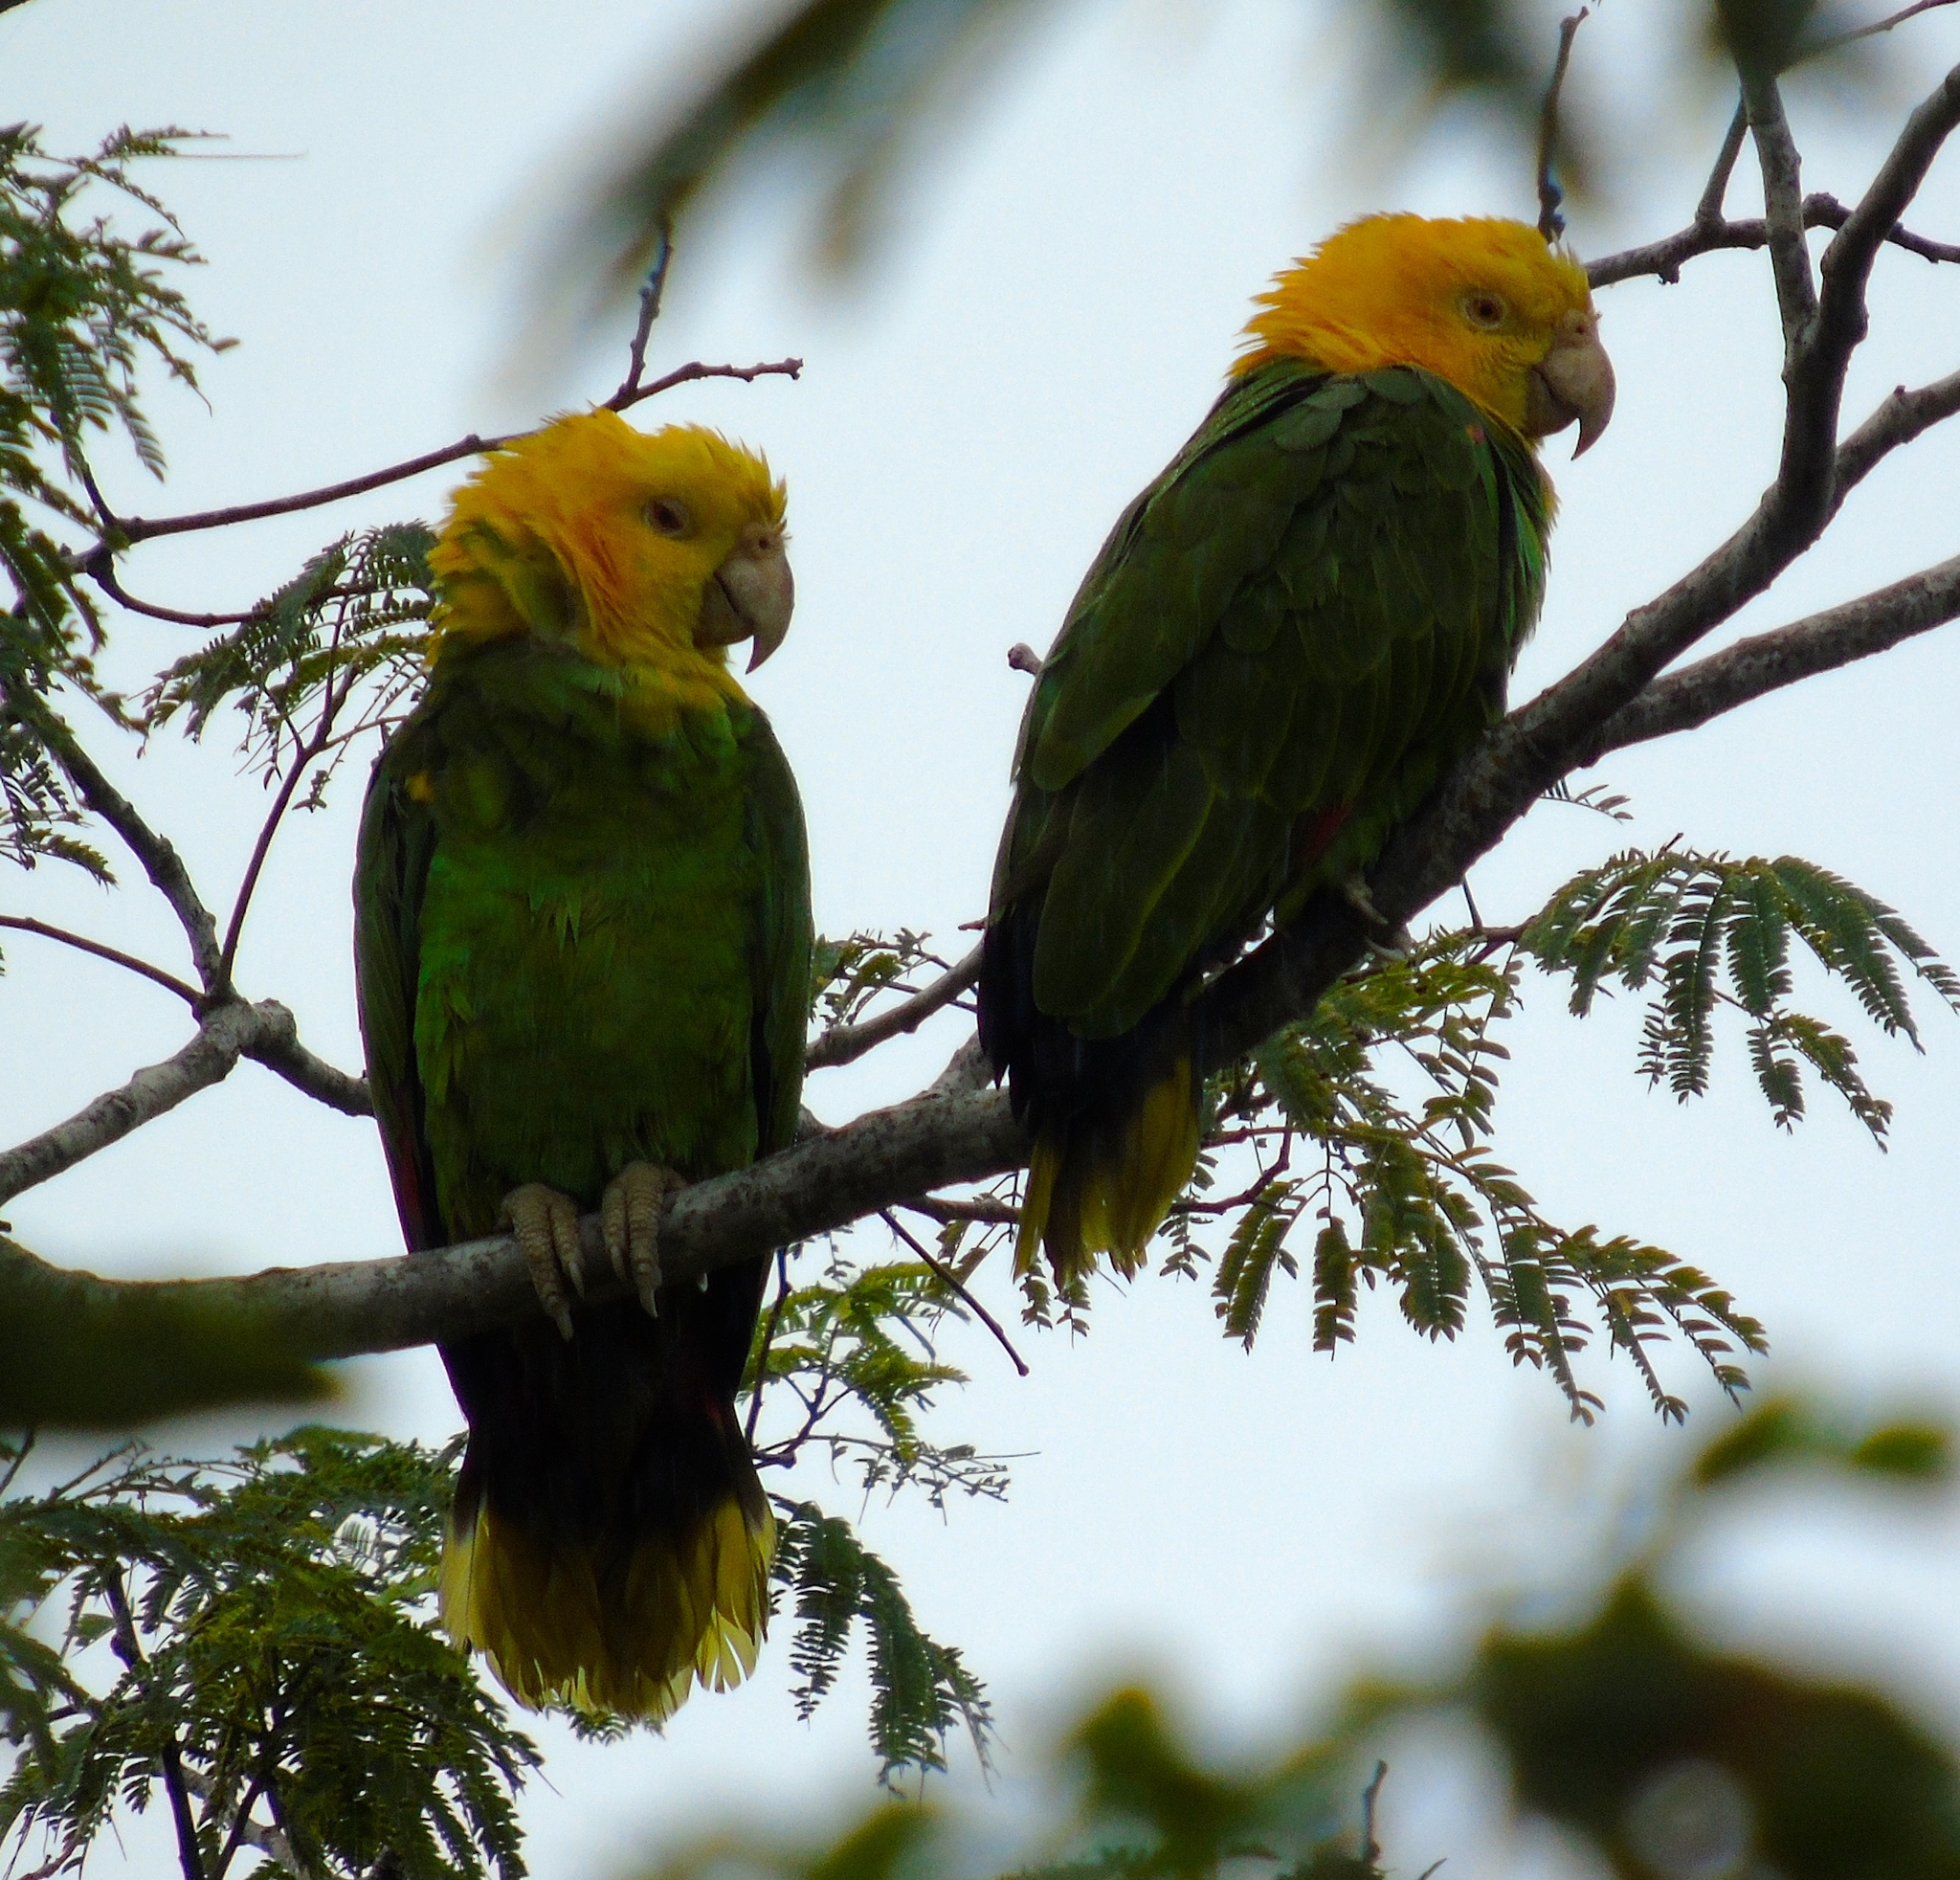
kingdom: Animalia
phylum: Chordata
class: Aves
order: Psittaciformes
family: Psittacidae
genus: Amazona
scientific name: Amazona oratrix
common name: Yellow-headed amazon
